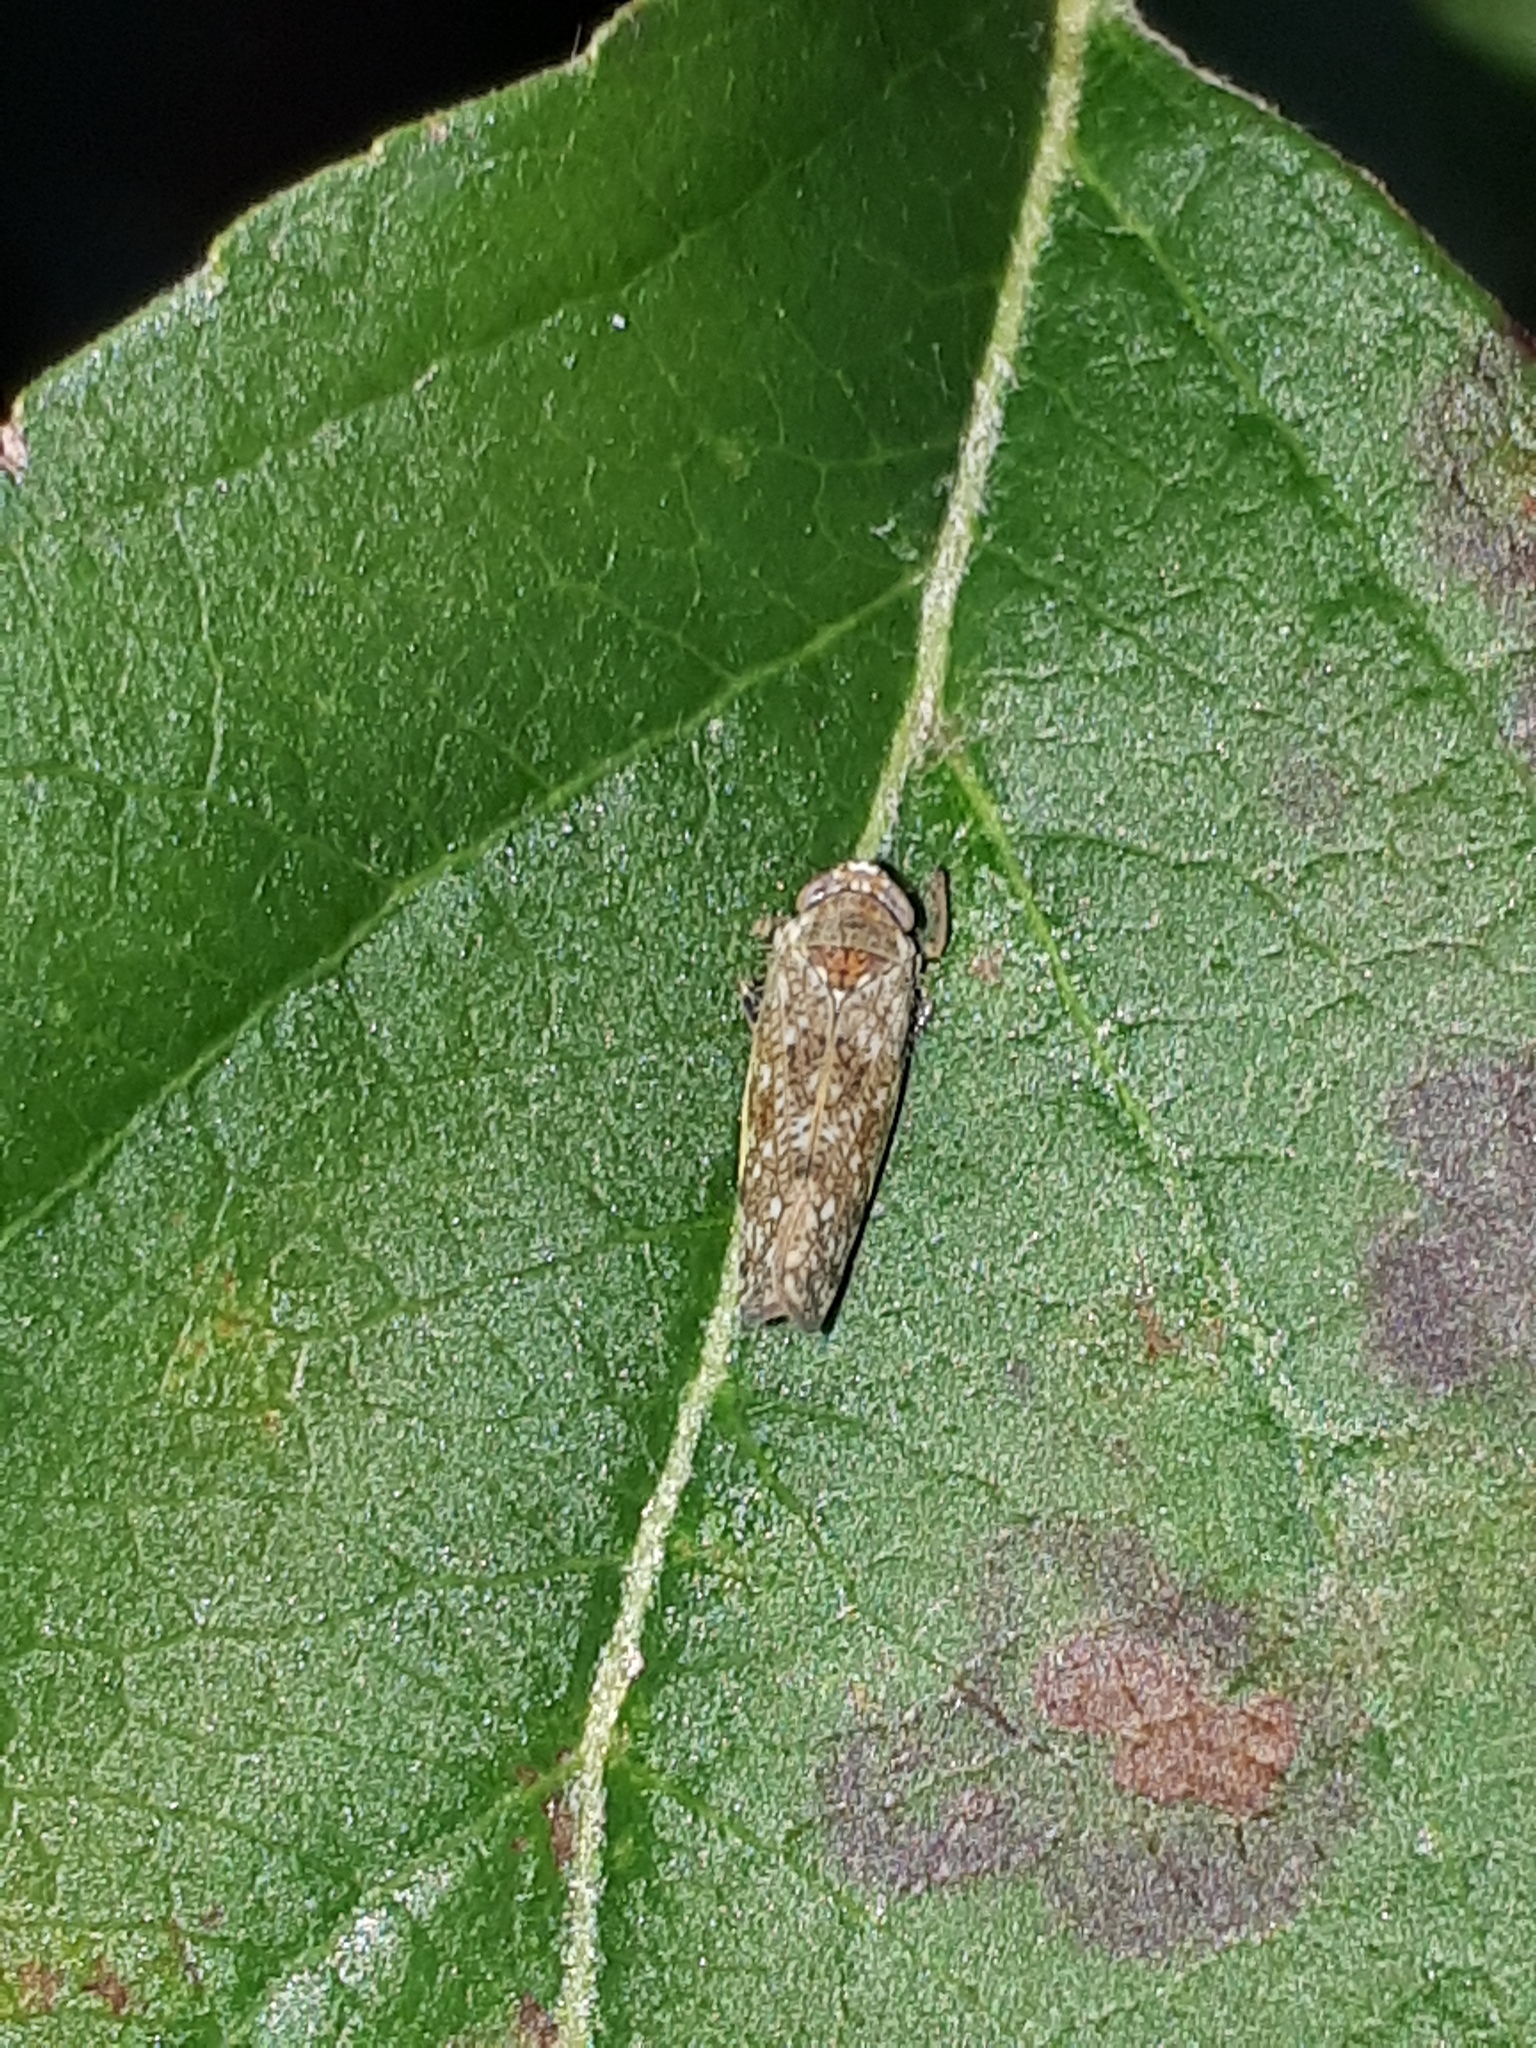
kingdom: Animalia
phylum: Arthropoda
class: Insecta
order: Hemiptera
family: Cicadellidae
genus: Orientus
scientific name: Orientus ishidae
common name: Japanese leafhopper
